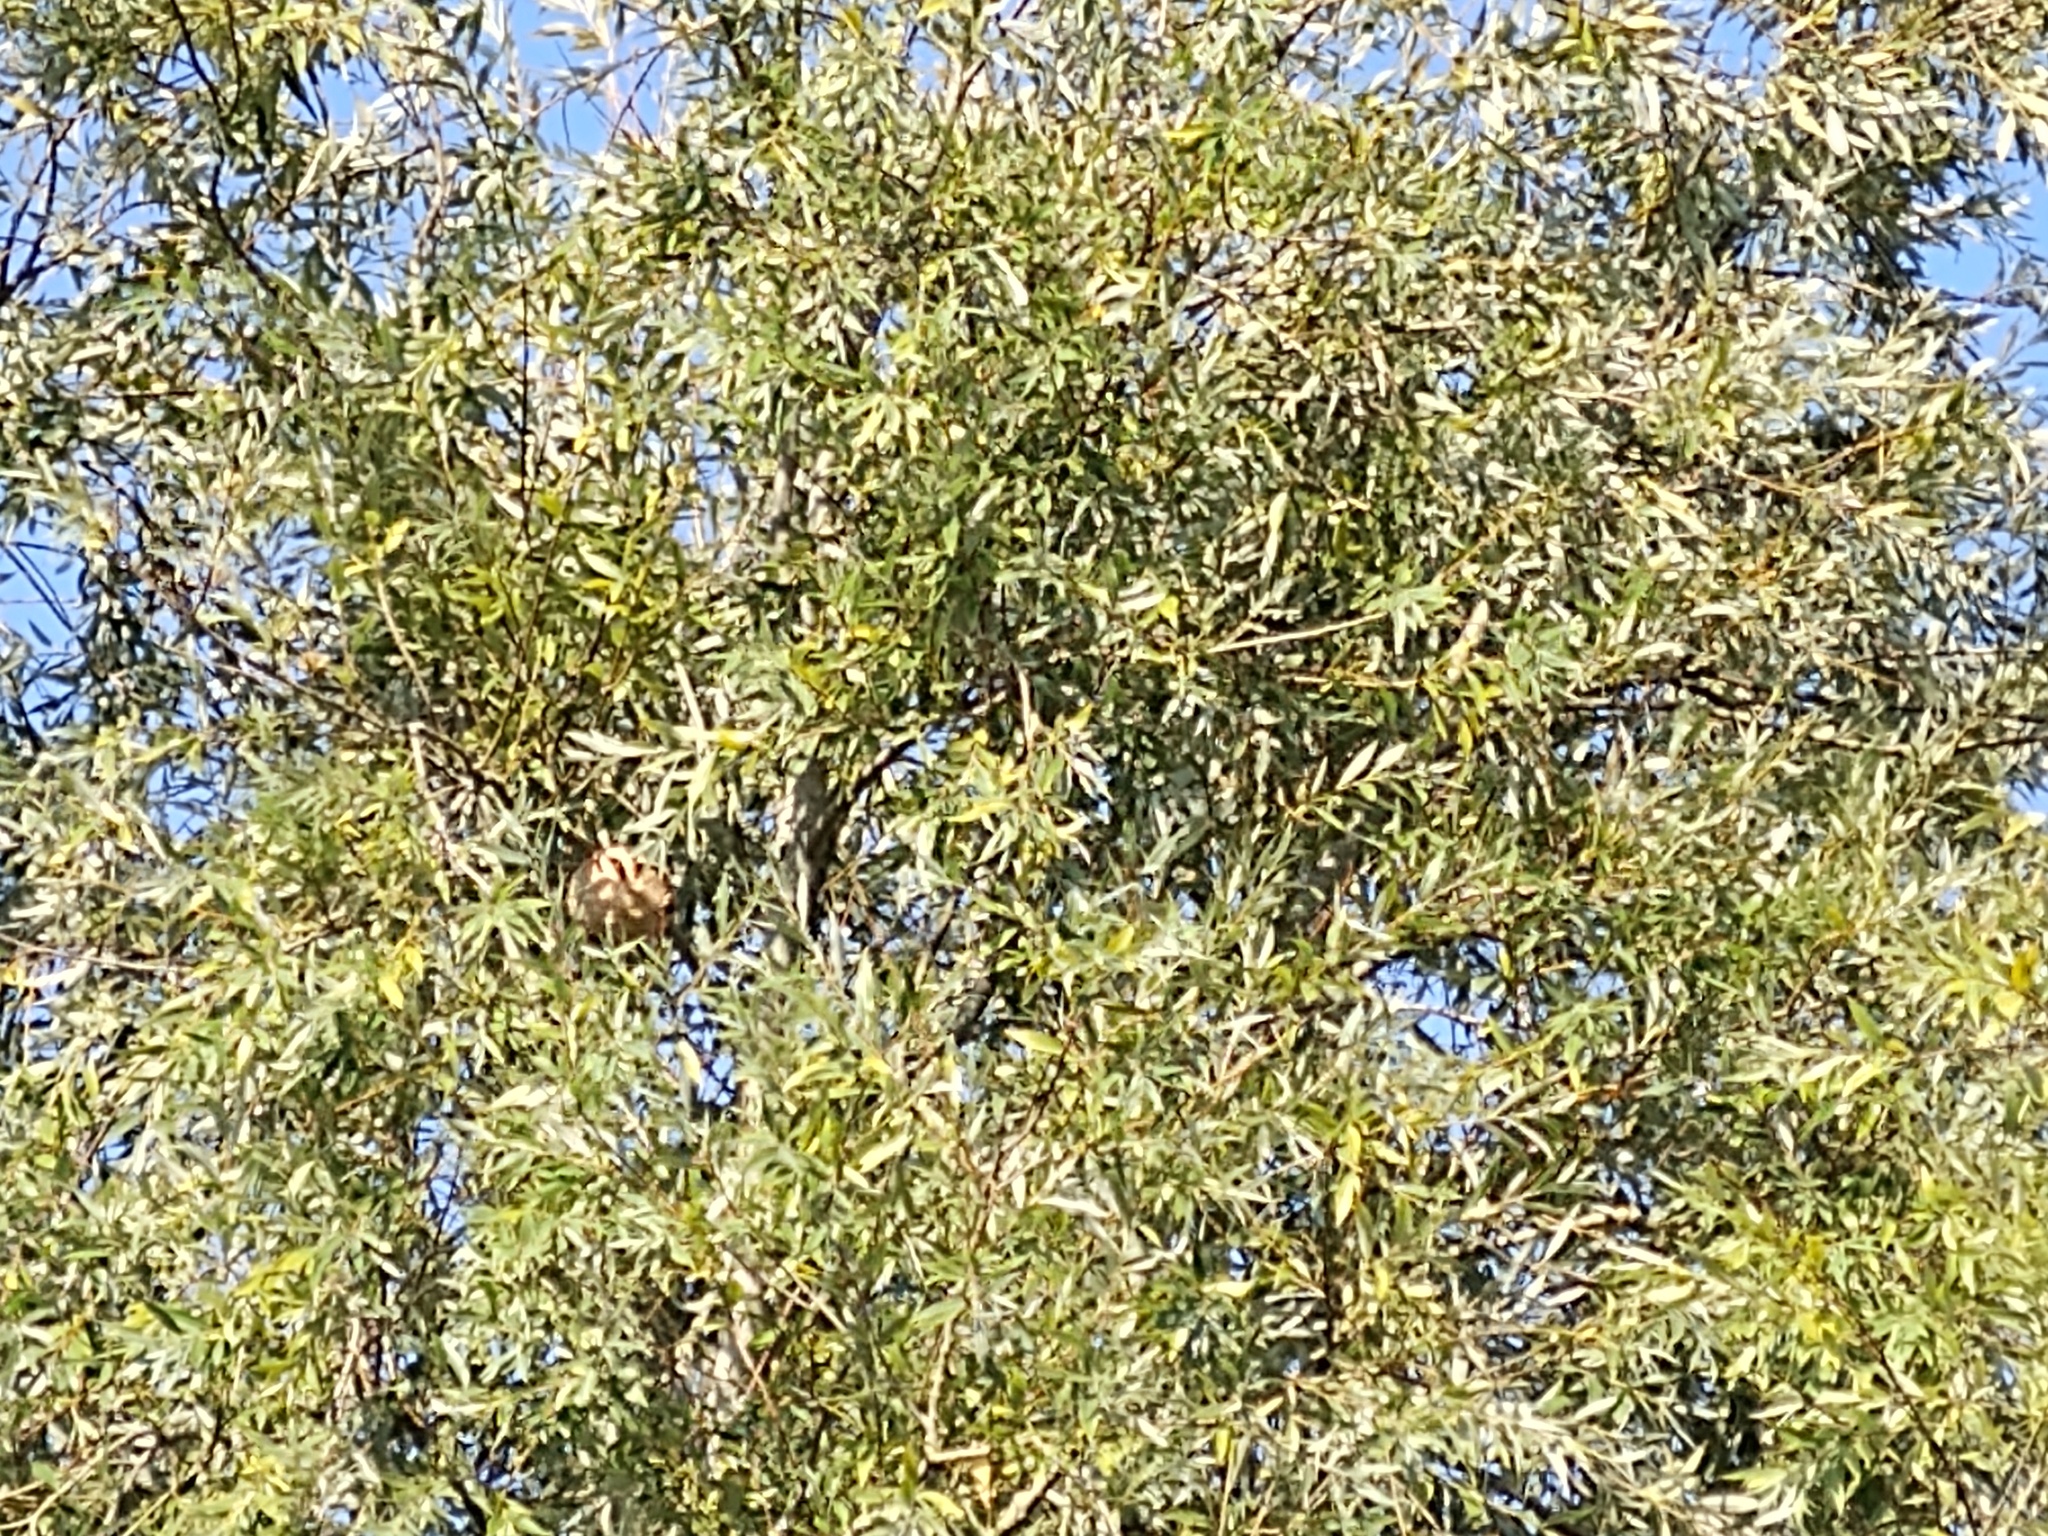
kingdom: Animalia
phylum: Arthropoda
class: Insecta
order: Hymenoptera
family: Vespidae
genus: Vespa
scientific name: Vespa velutina
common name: Asian hornet
